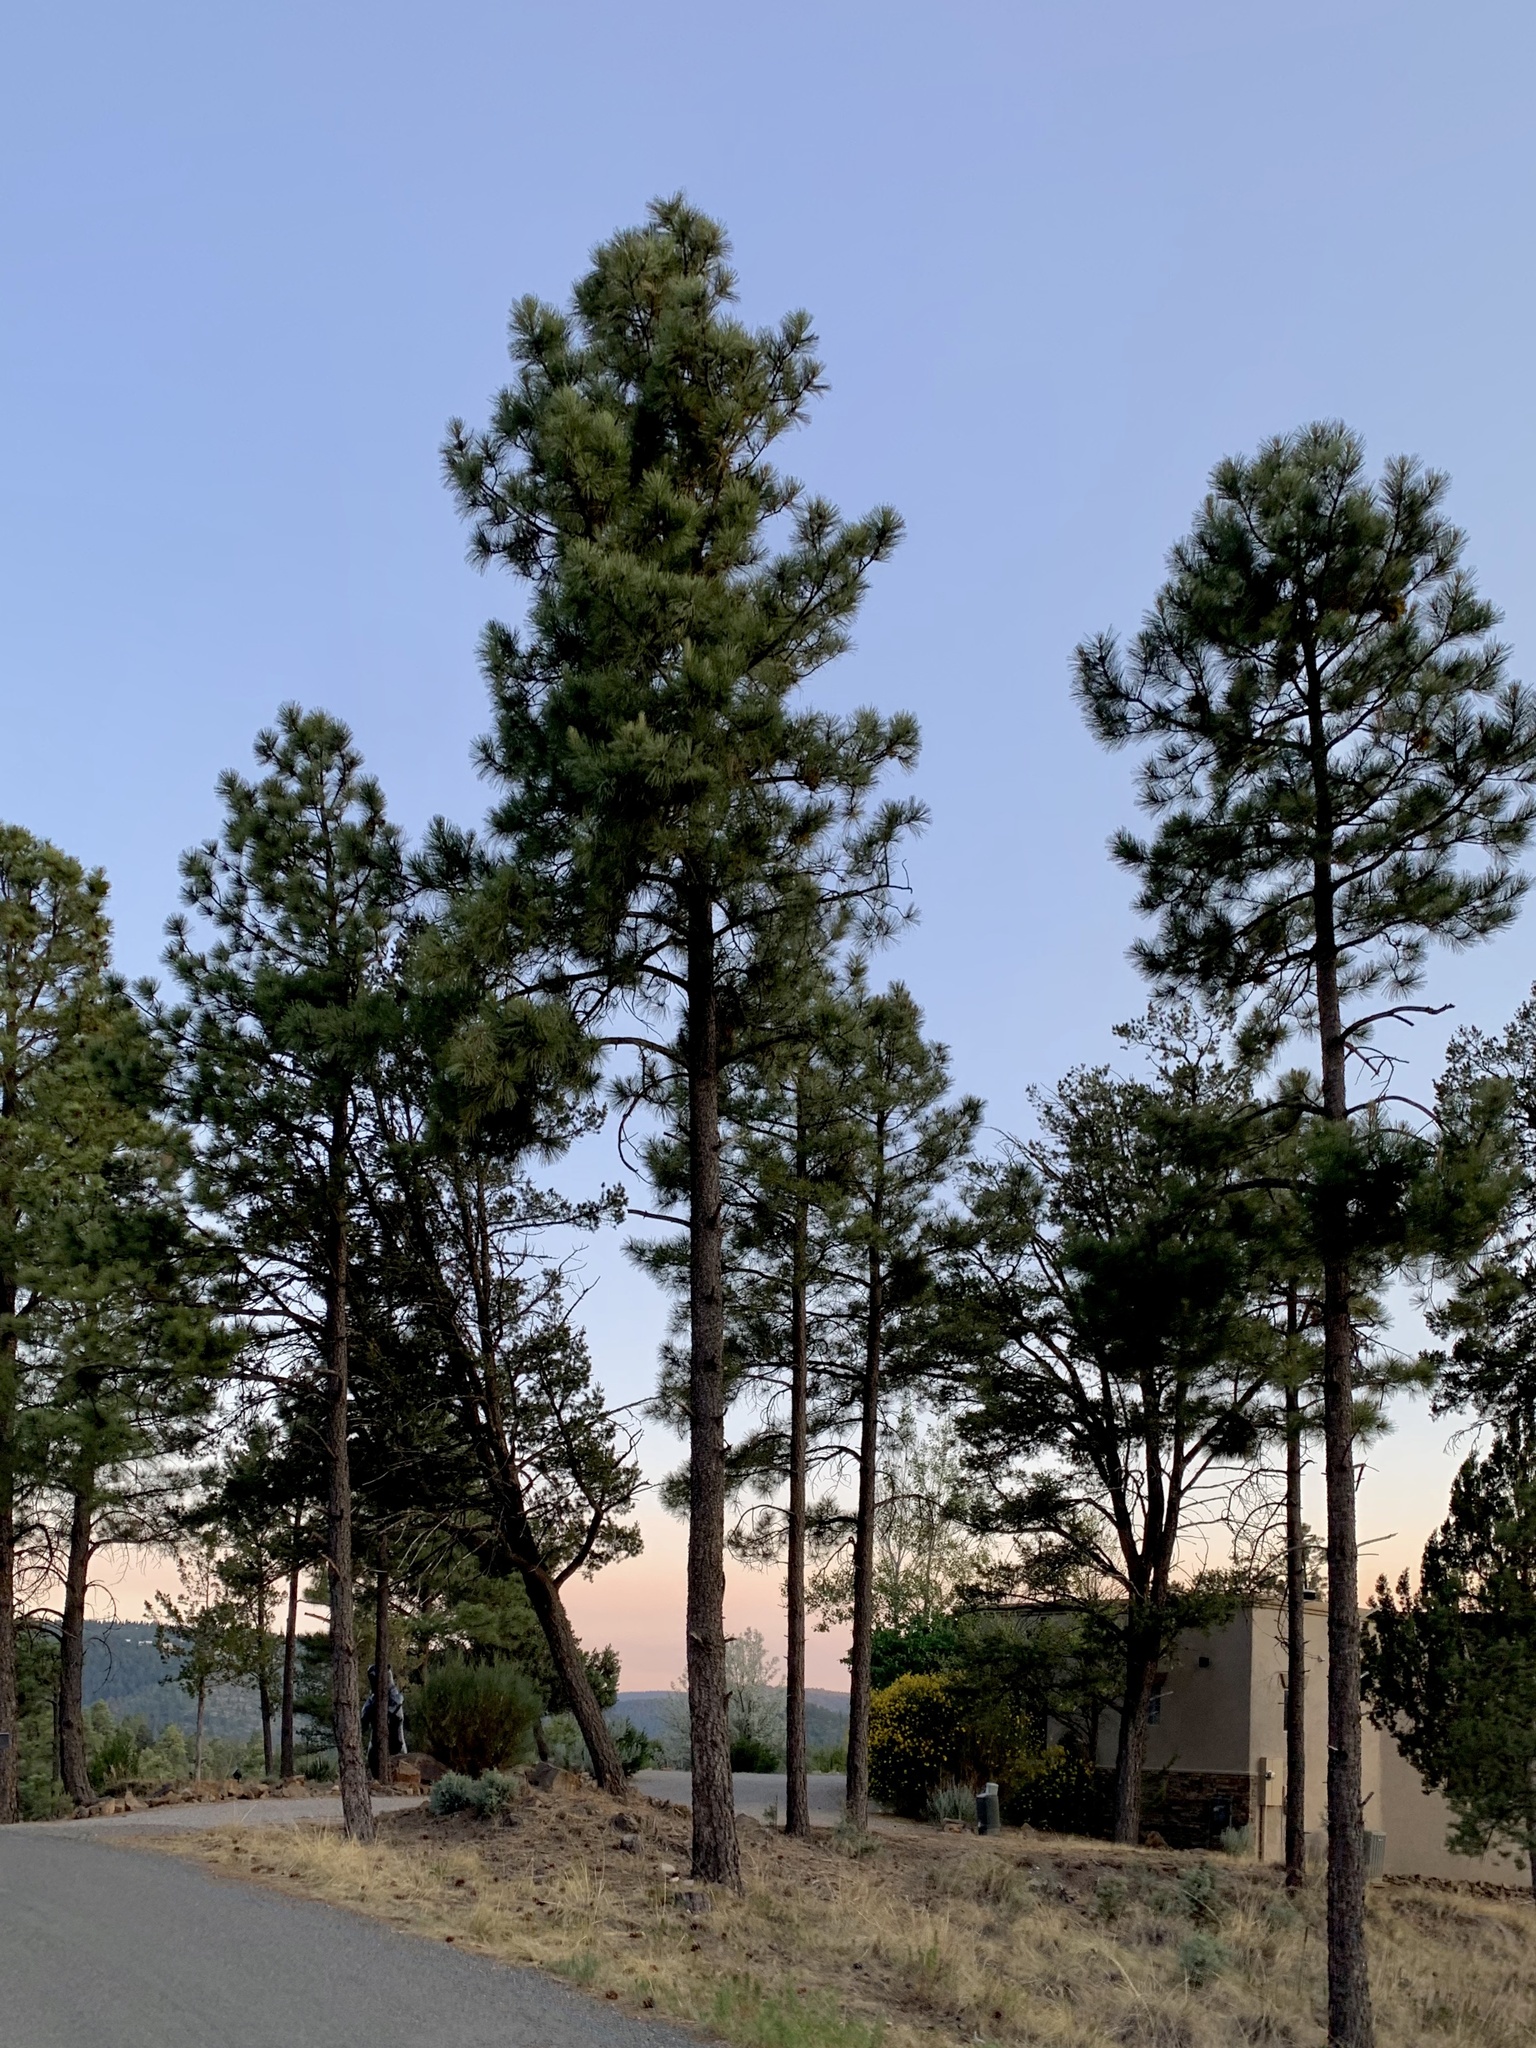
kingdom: Plantae
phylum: Tracheophyta
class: Pinopsida
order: Pinales
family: Pinaceae
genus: Pinus
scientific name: Pinus ponderosa
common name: Western yellow-pine
